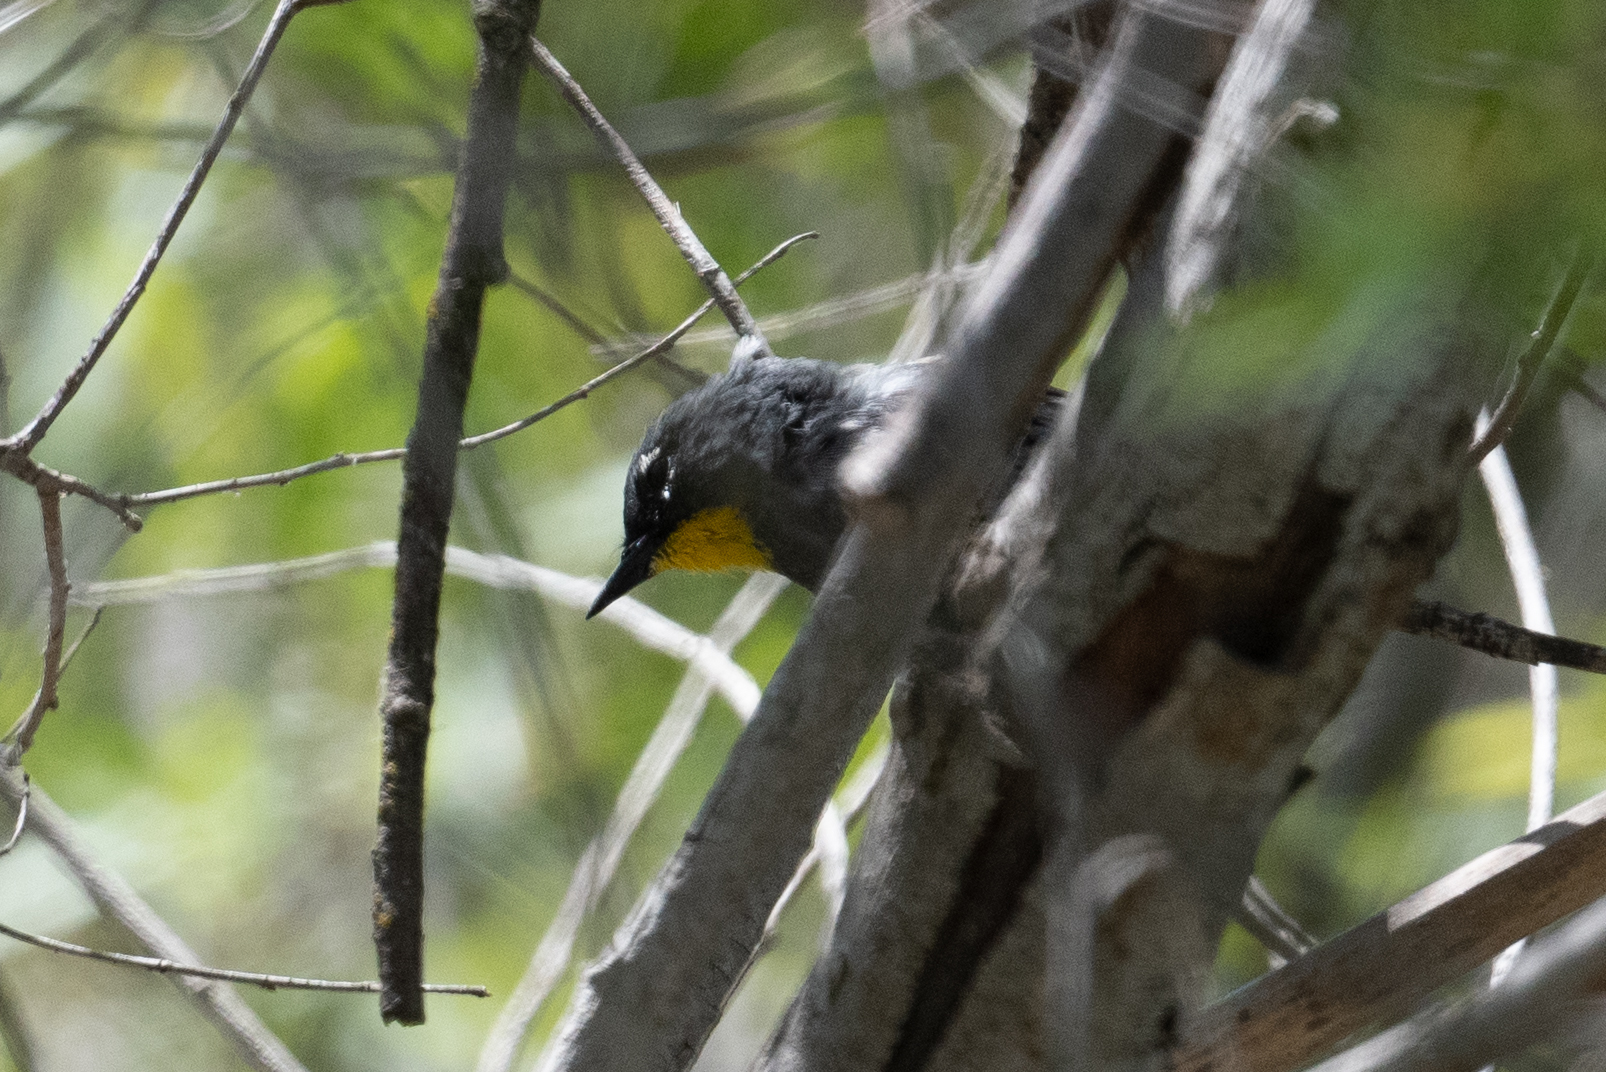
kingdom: Animalia
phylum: Chordata
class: Aves
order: Passeriformes
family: Parulidae
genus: Setophaga
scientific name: Setophaga coronata
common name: Myrtle warbler
